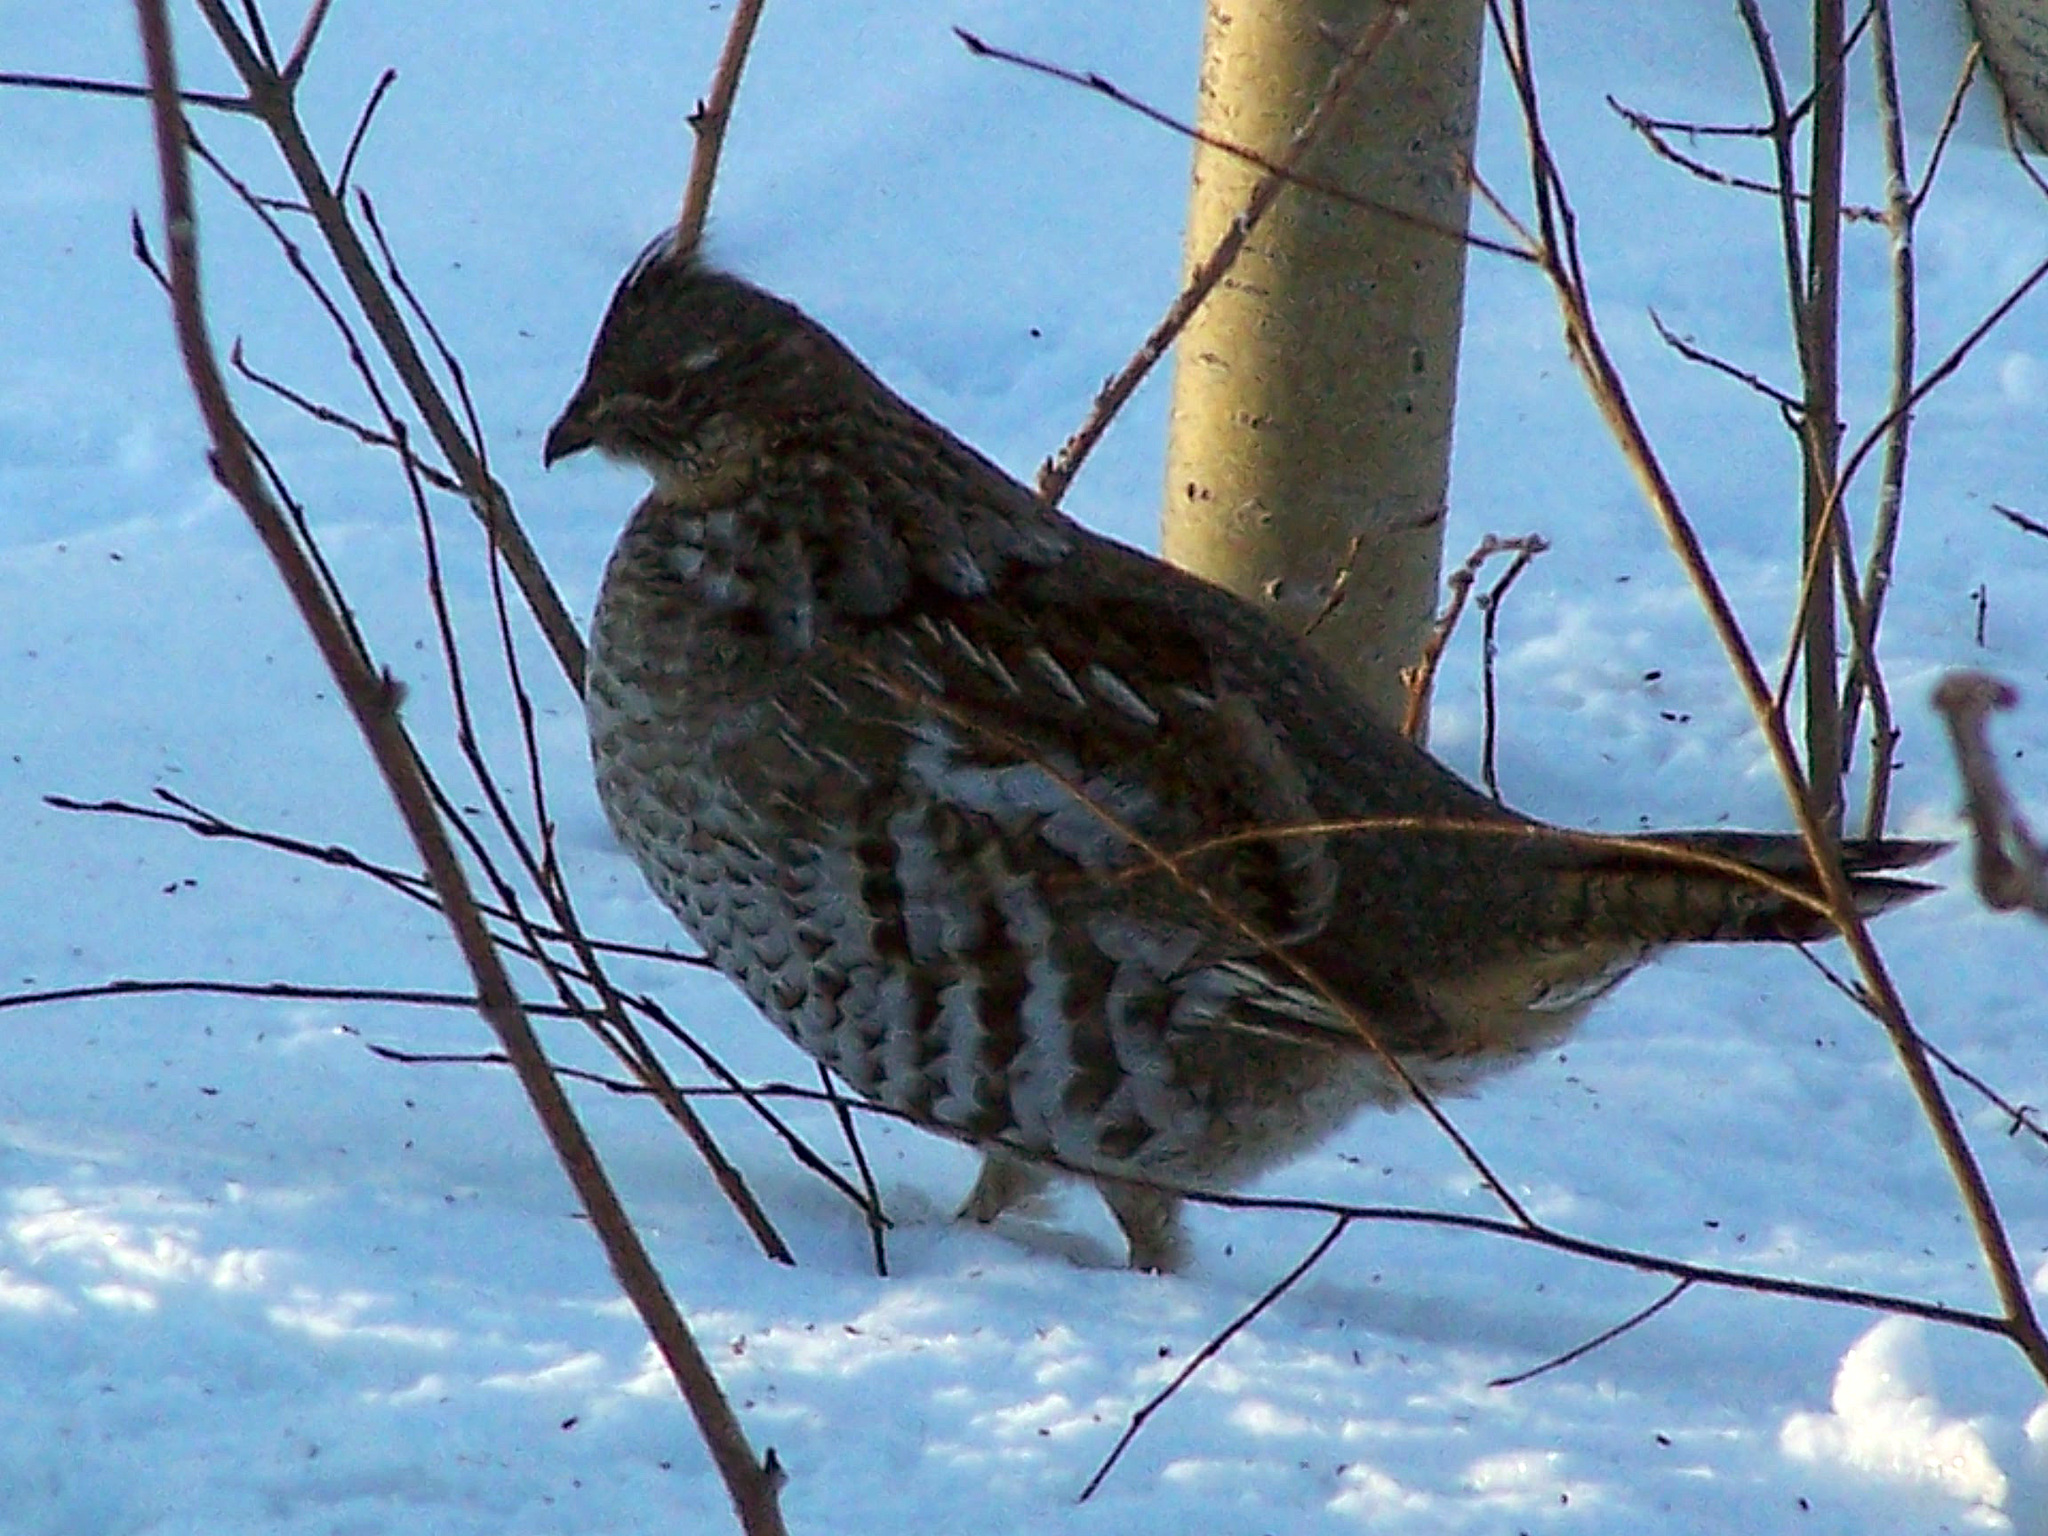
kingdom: Animalia
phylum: Chordata
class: Aves
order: Galliformes
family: Phasianidae
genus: Bonasa
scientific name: Bonasa umbellus
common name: Ruffed grouse
